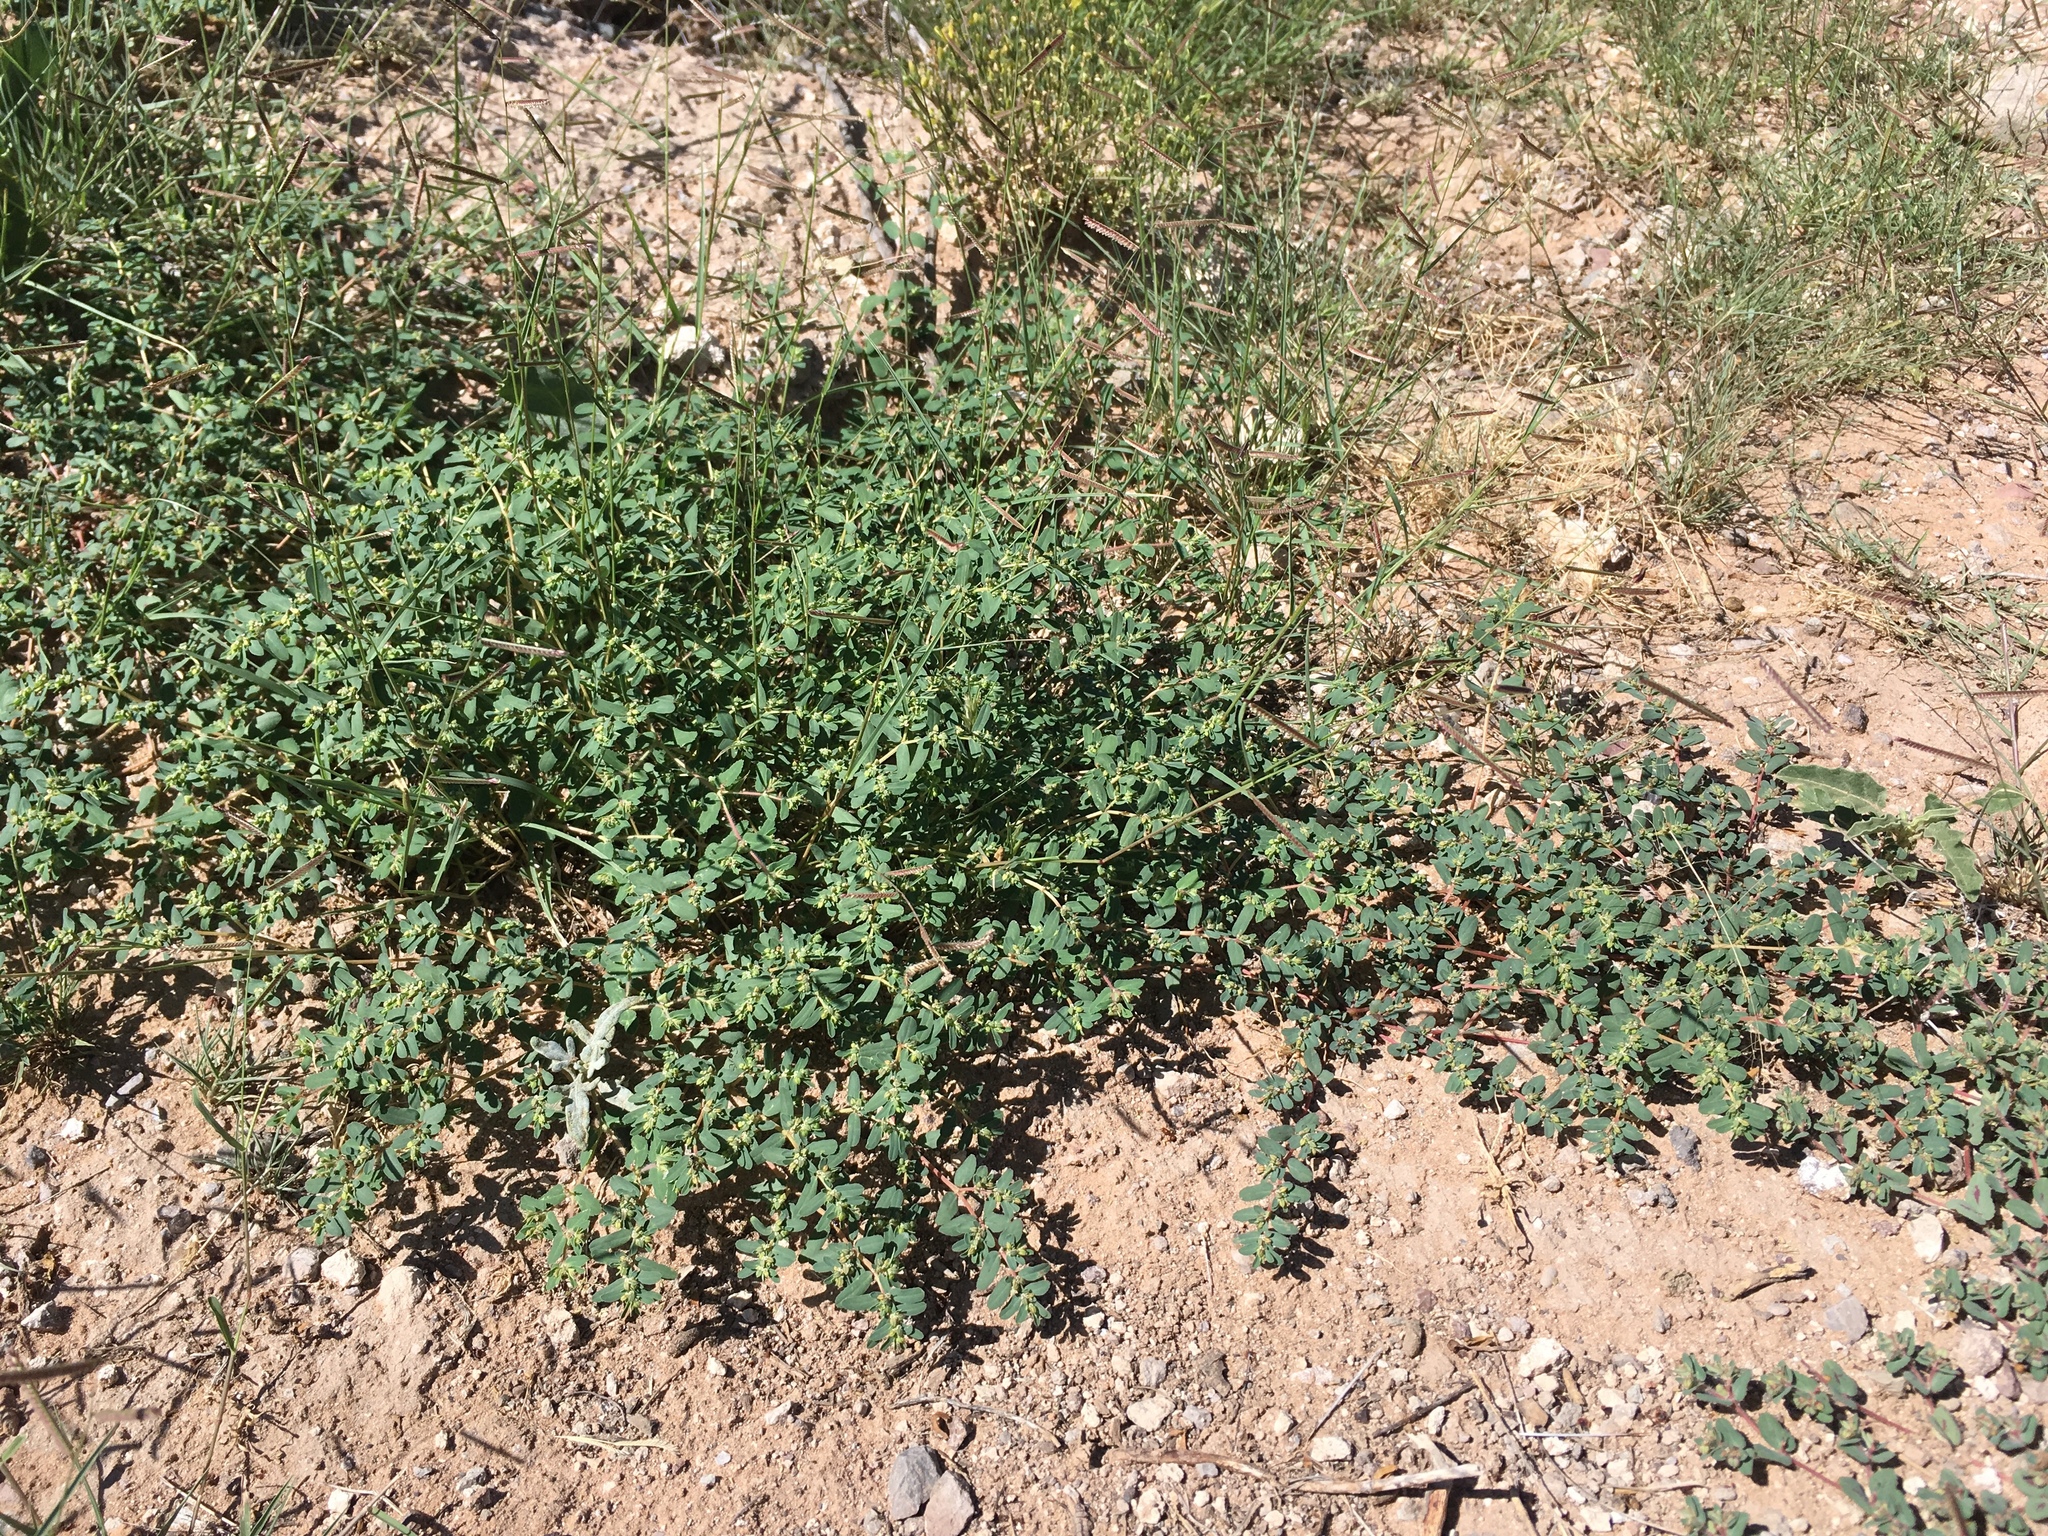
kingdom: Plantae
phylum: Tracheophyta
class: Magnoliopsida
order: Malpighiales
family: Euphorbiaceae
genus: Euphorbia
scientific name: Euphorbia serpillifolia
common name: Thyme-leaf spurge
